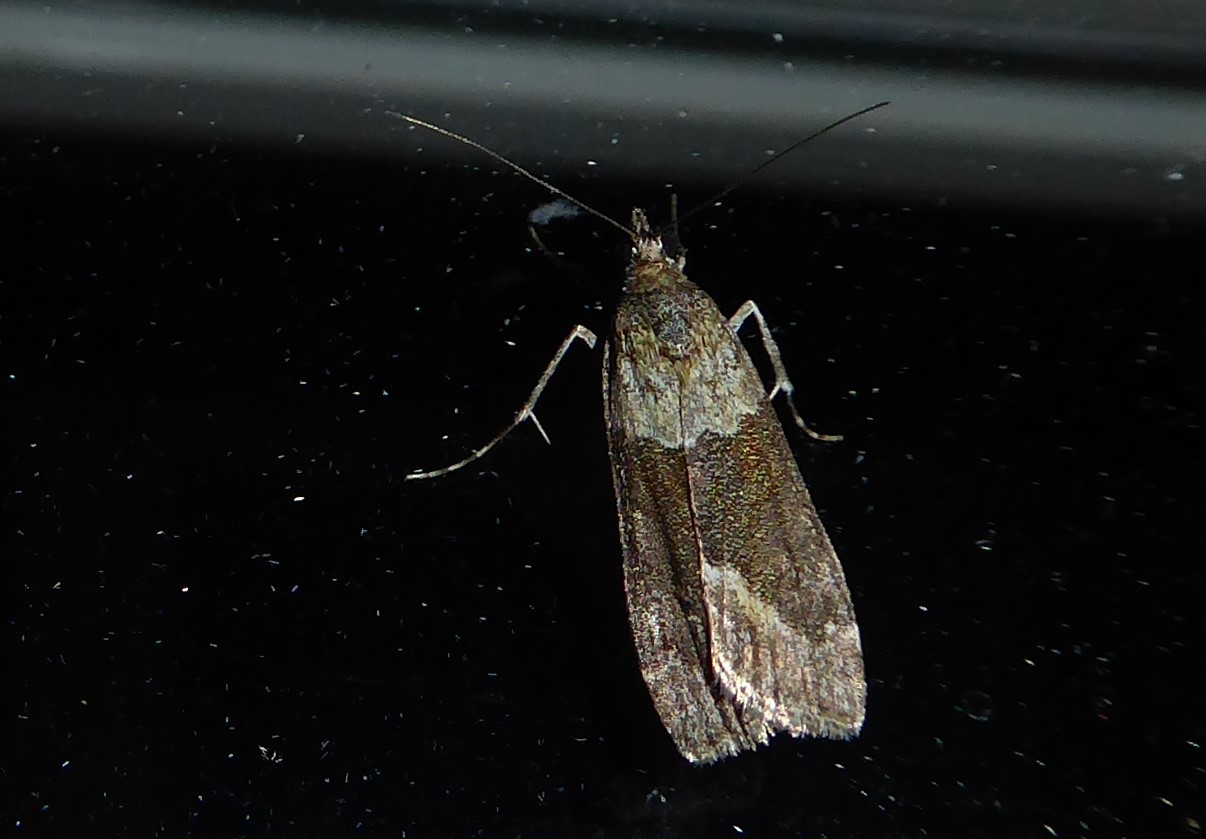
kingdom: Animalia
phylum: Arthropoda
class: Insecta
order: Lepidoptera
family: Crambidae
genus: Eudonia
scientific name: Eudonia submarginalis
